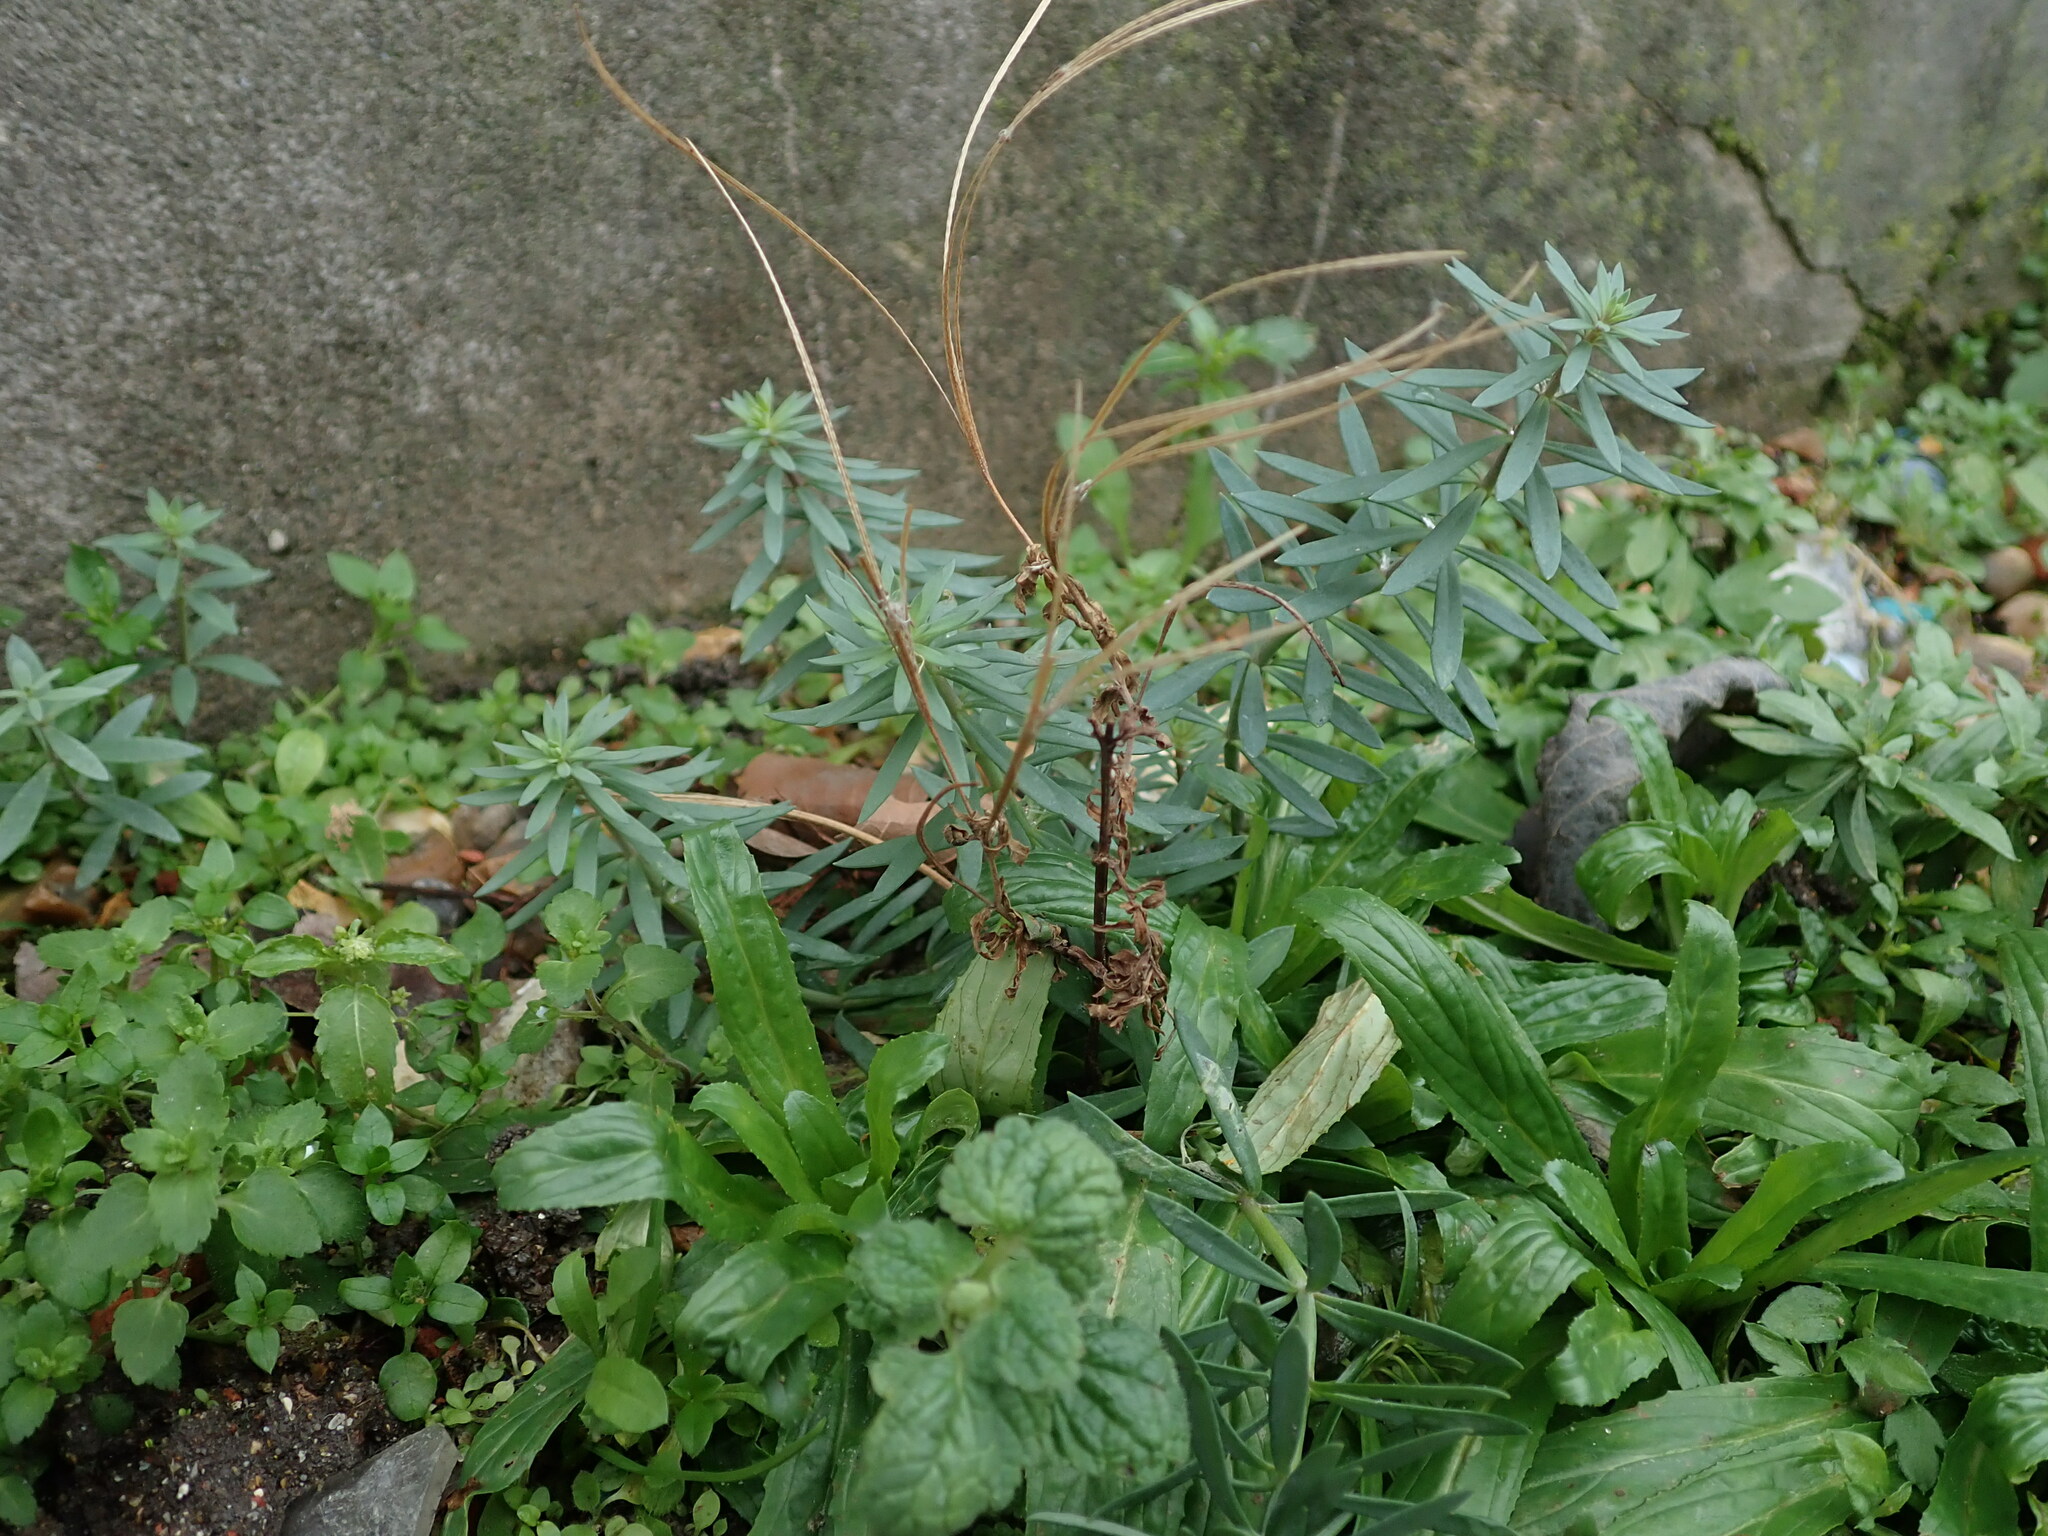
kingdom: Plantae
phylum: Tracheophyta
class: Magnoliopsida
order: Lamiales
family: Plantaginaceae
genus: Linaria
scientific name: Linaria purpurea
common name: Purple toadflax
